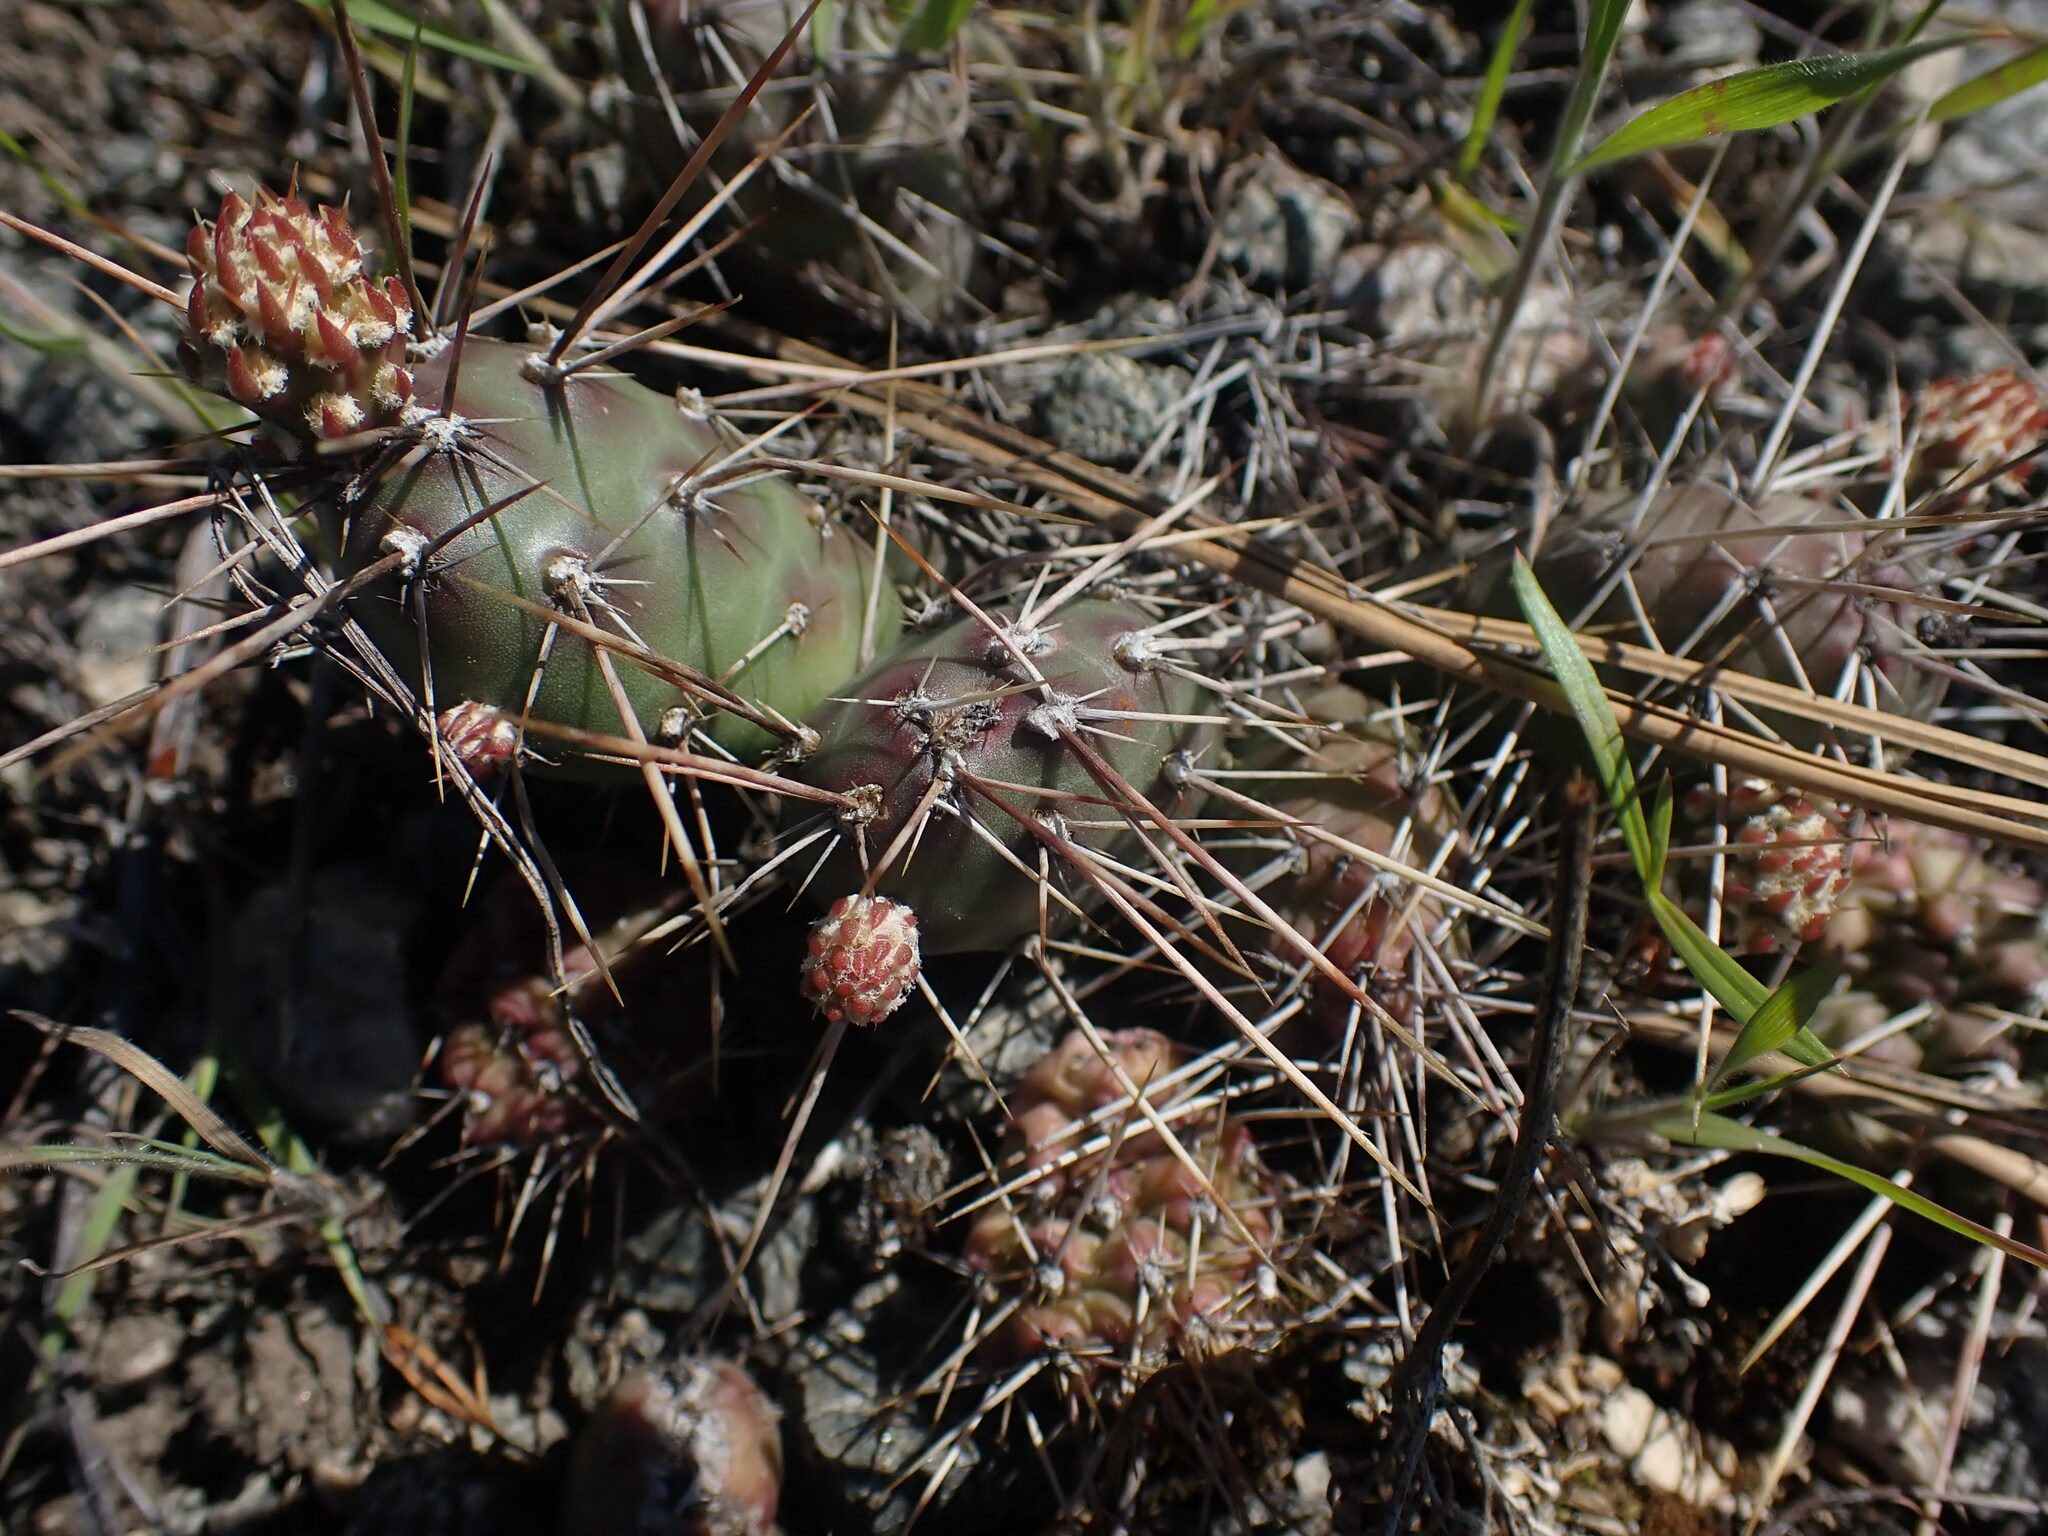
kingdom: Plantae
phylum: Tracheophyta
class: Magnoliopsida
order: Caryophyllales
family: Cactaceae
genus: Opuntia
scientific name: Opuntia fragilis
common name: Brittle cactus
